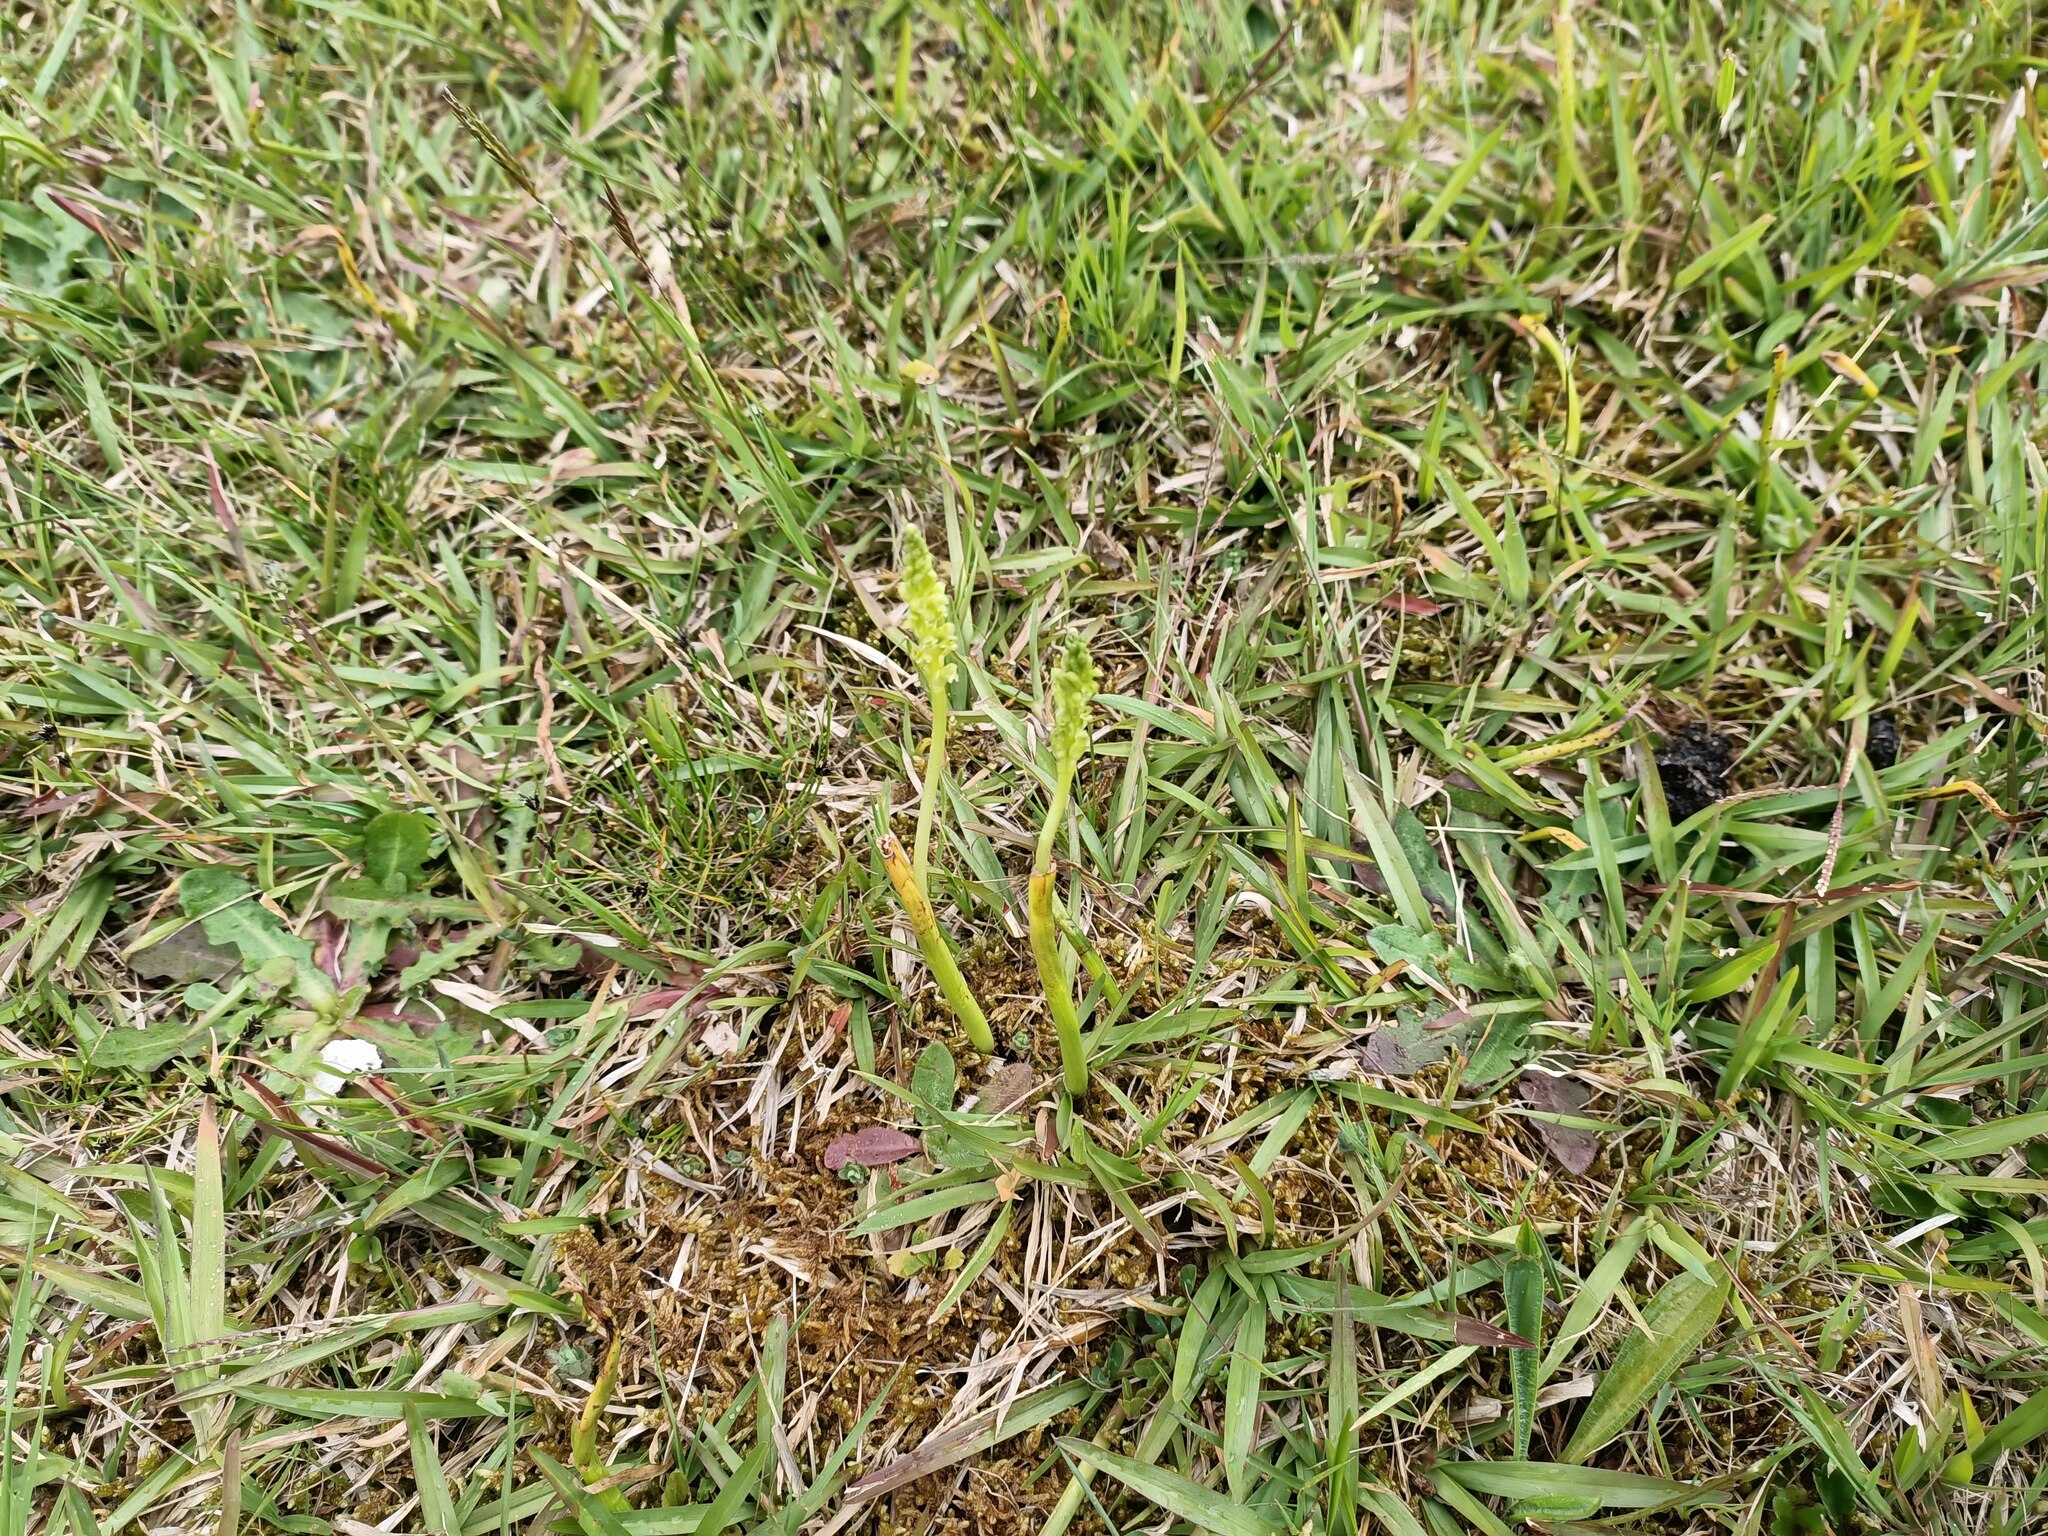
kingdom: Plantae
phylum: Tracheophyta
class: Liliopsida
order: Asparagales
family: Orchidaceae
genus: Microtis
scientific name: Microtis unifolia
